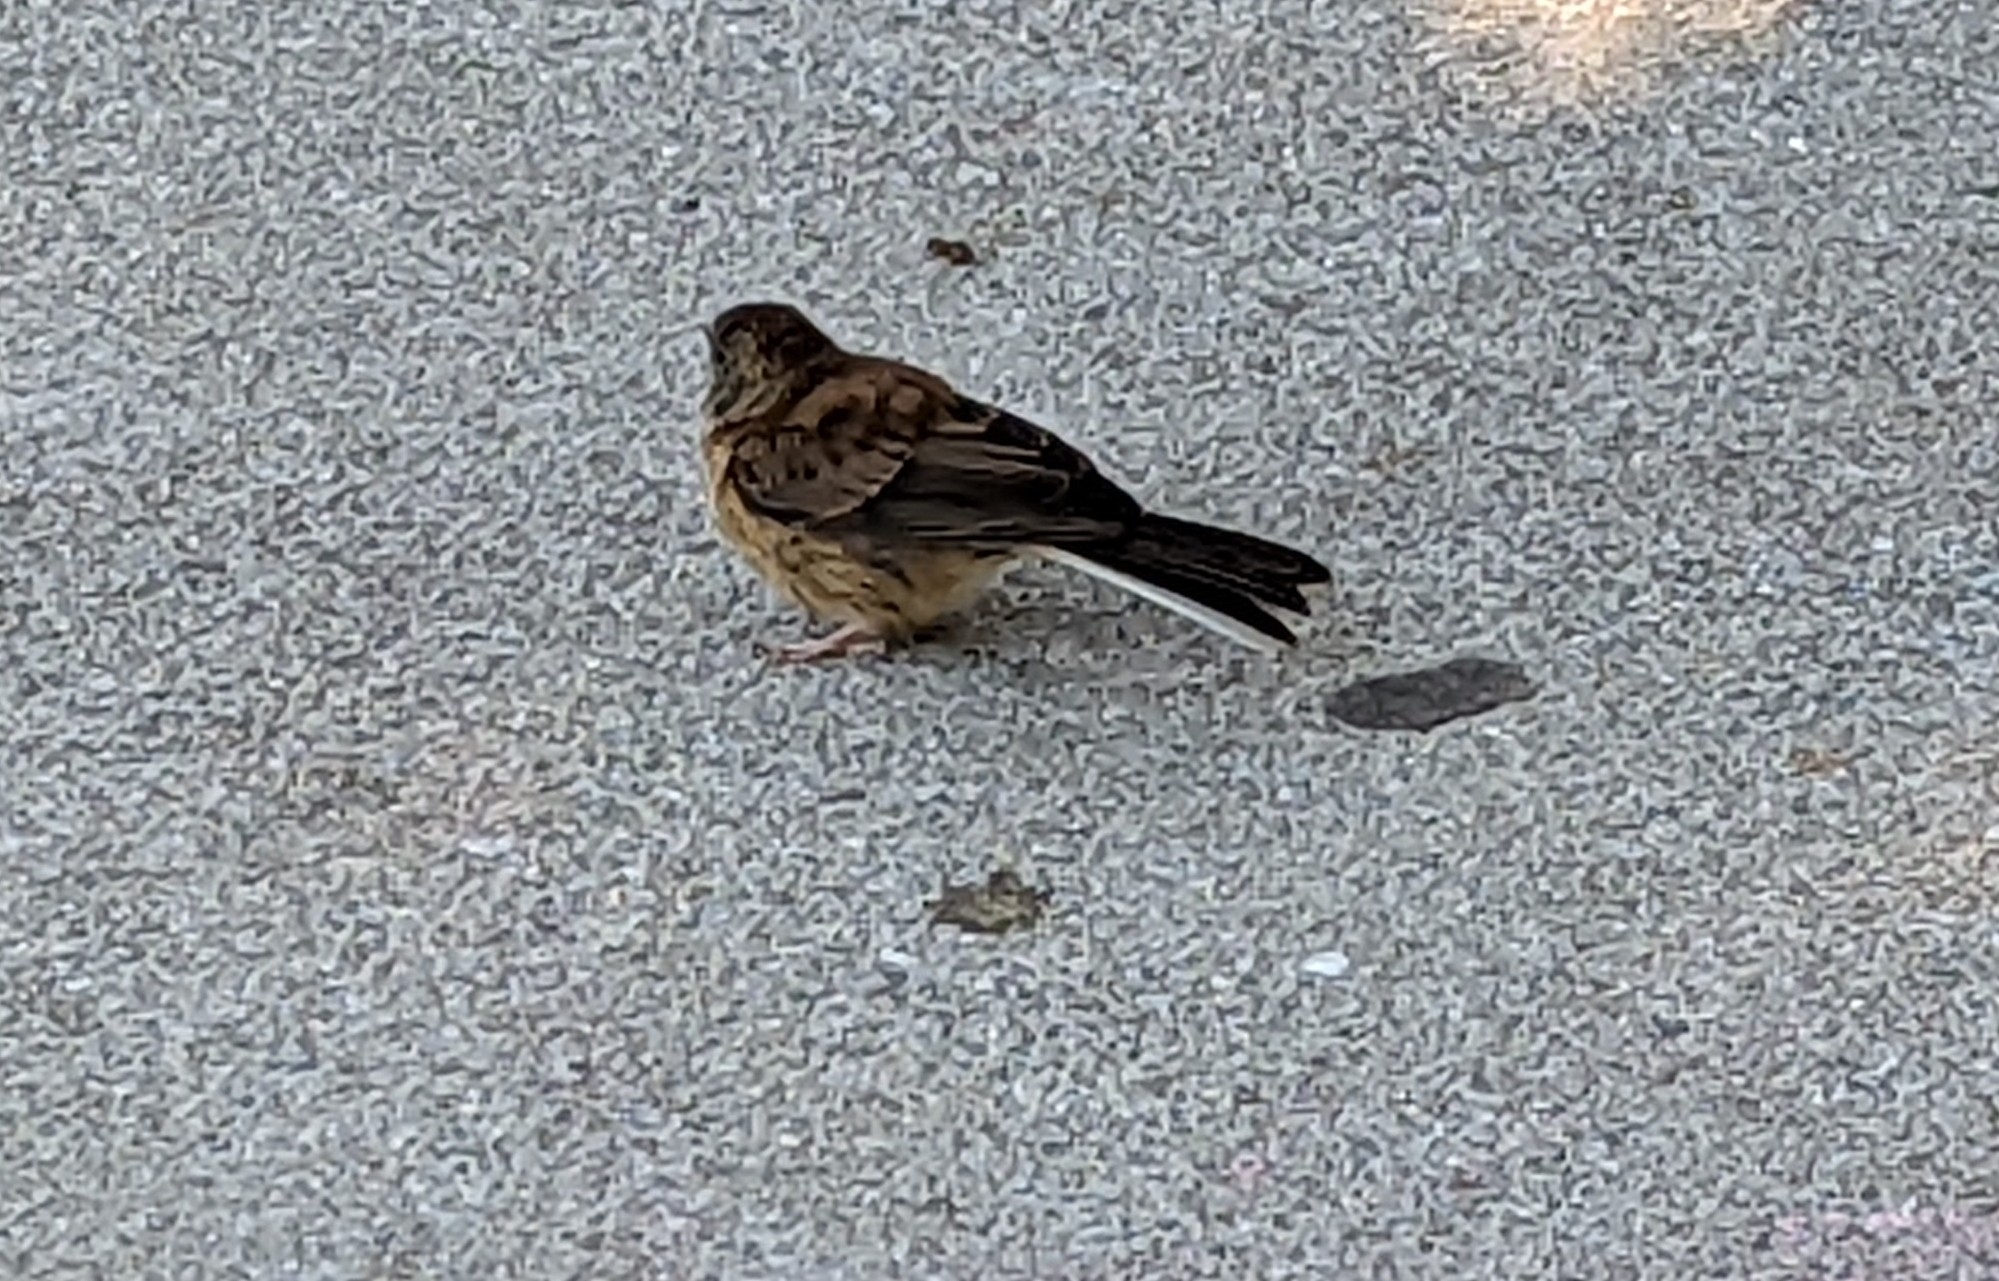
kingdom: Animalia
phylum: Chordata
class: Aves
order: Passeriformes
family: Passerellidae
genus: Junco
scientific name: Junco hyemalis
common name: Dark-eyed junco
